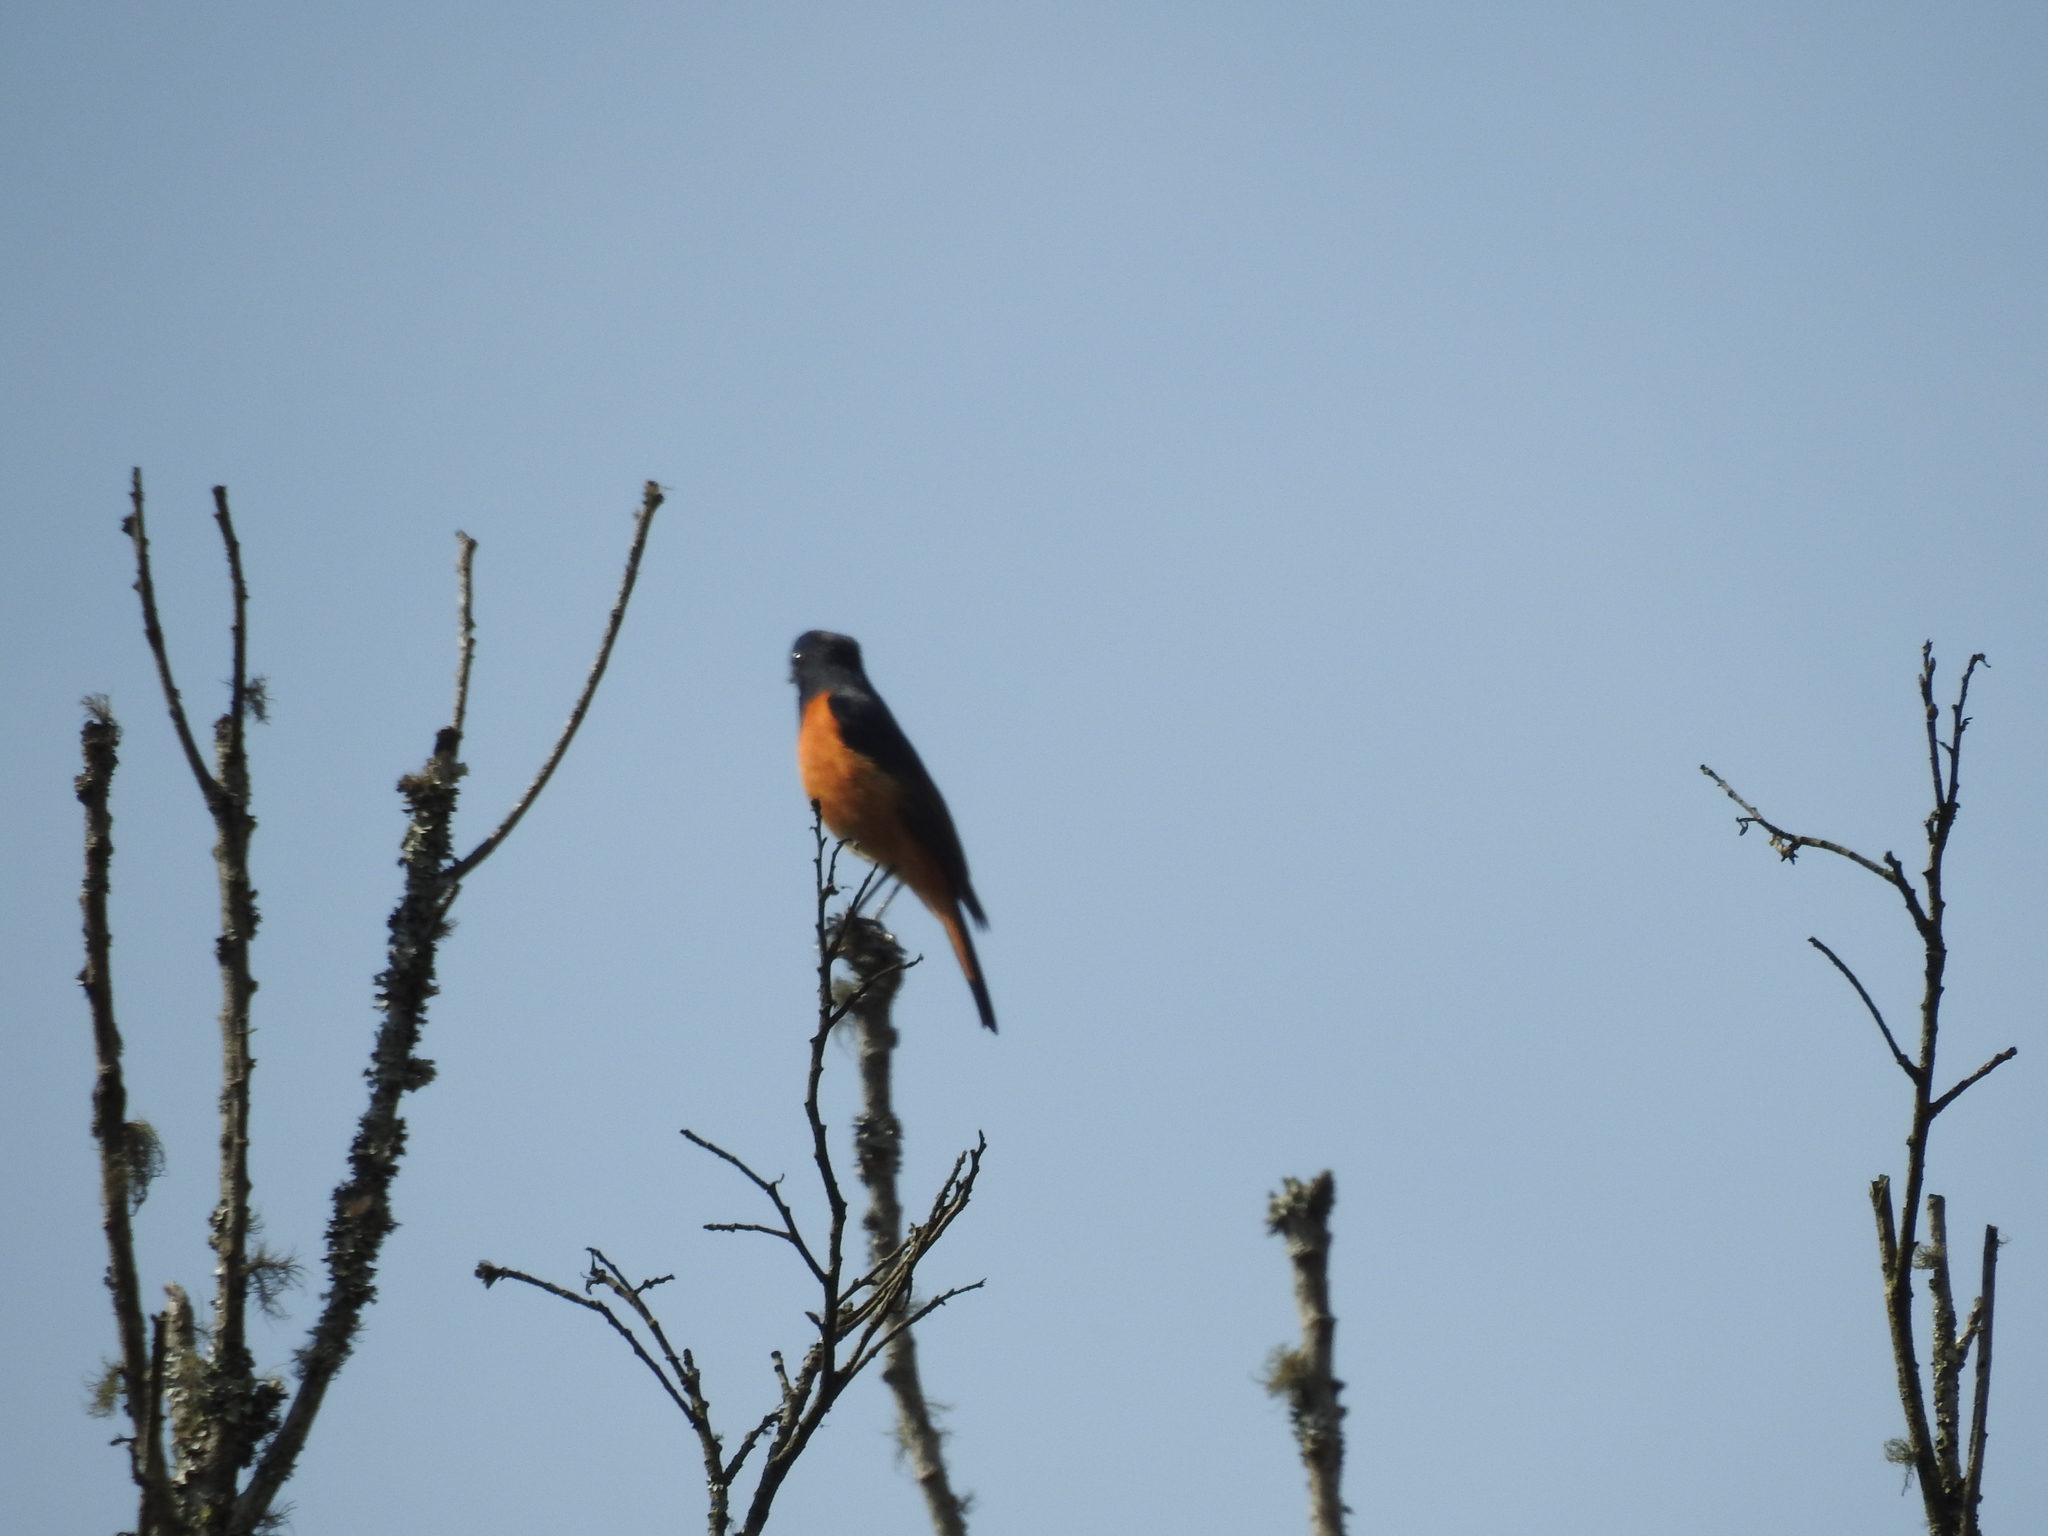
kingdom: Animalia
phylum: Chordata
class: Aves
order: Passeriformes
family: Muscicapidae
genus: Phoenicurus
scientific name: Phoenicurus ochruros
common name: Black redstart
